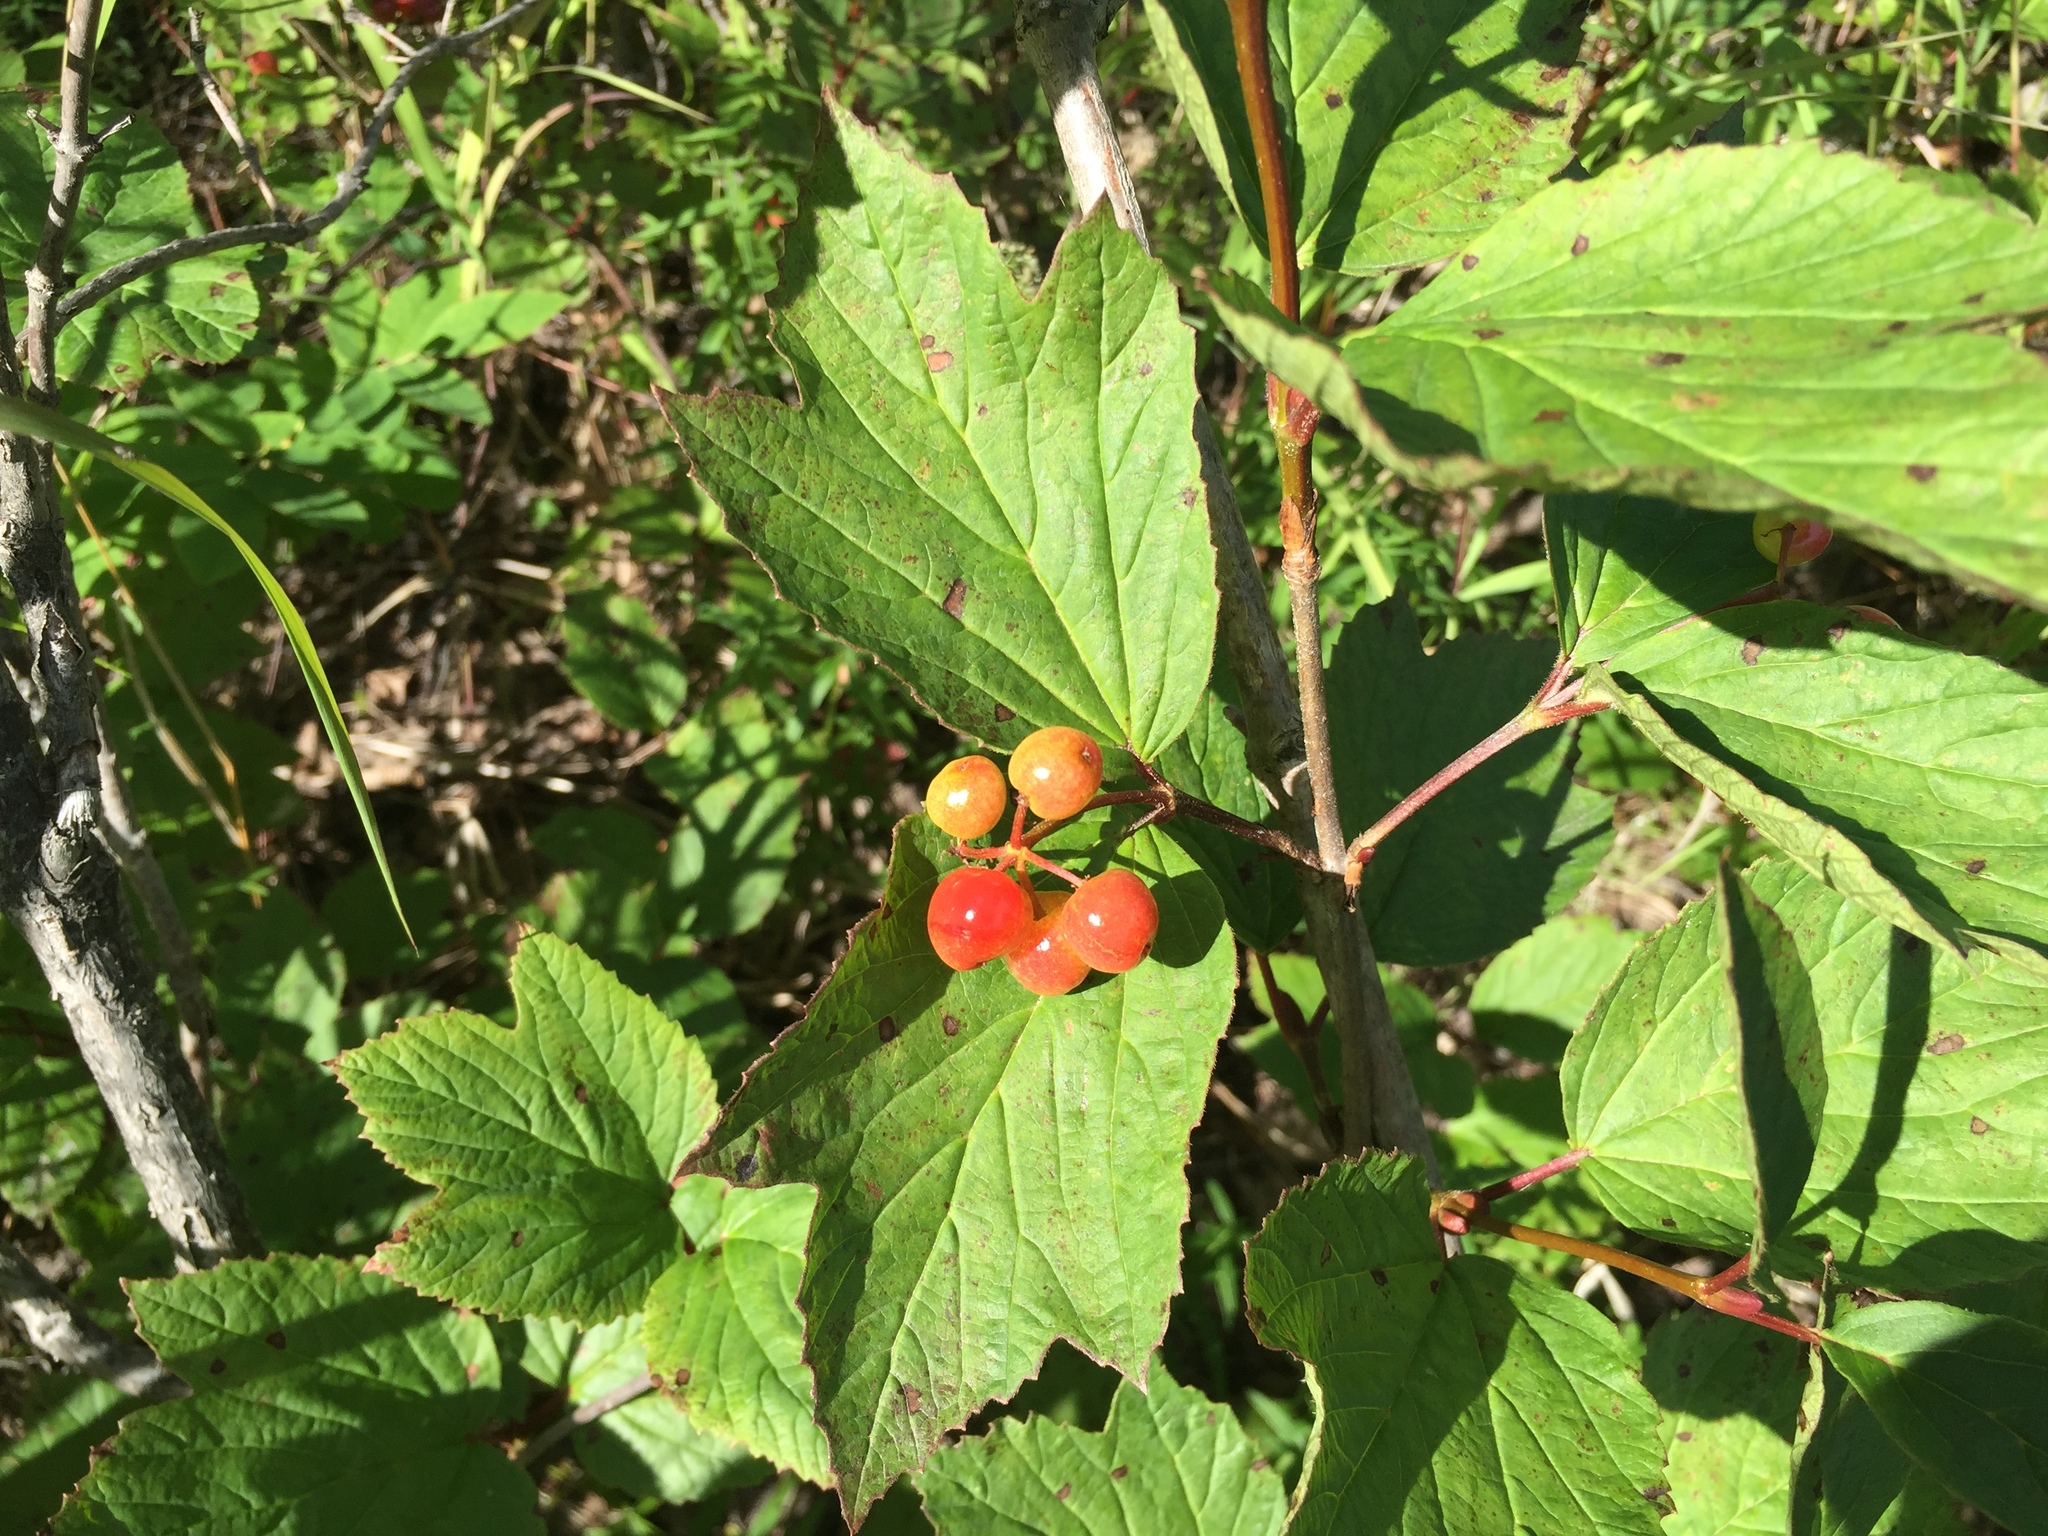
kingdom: Plantae
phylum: Tracheophyta
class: Magnoliopsida
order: Dipsacales
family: Viburnaceae
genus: Viburnum
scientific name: Viburnum edule
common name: Mooseberry
